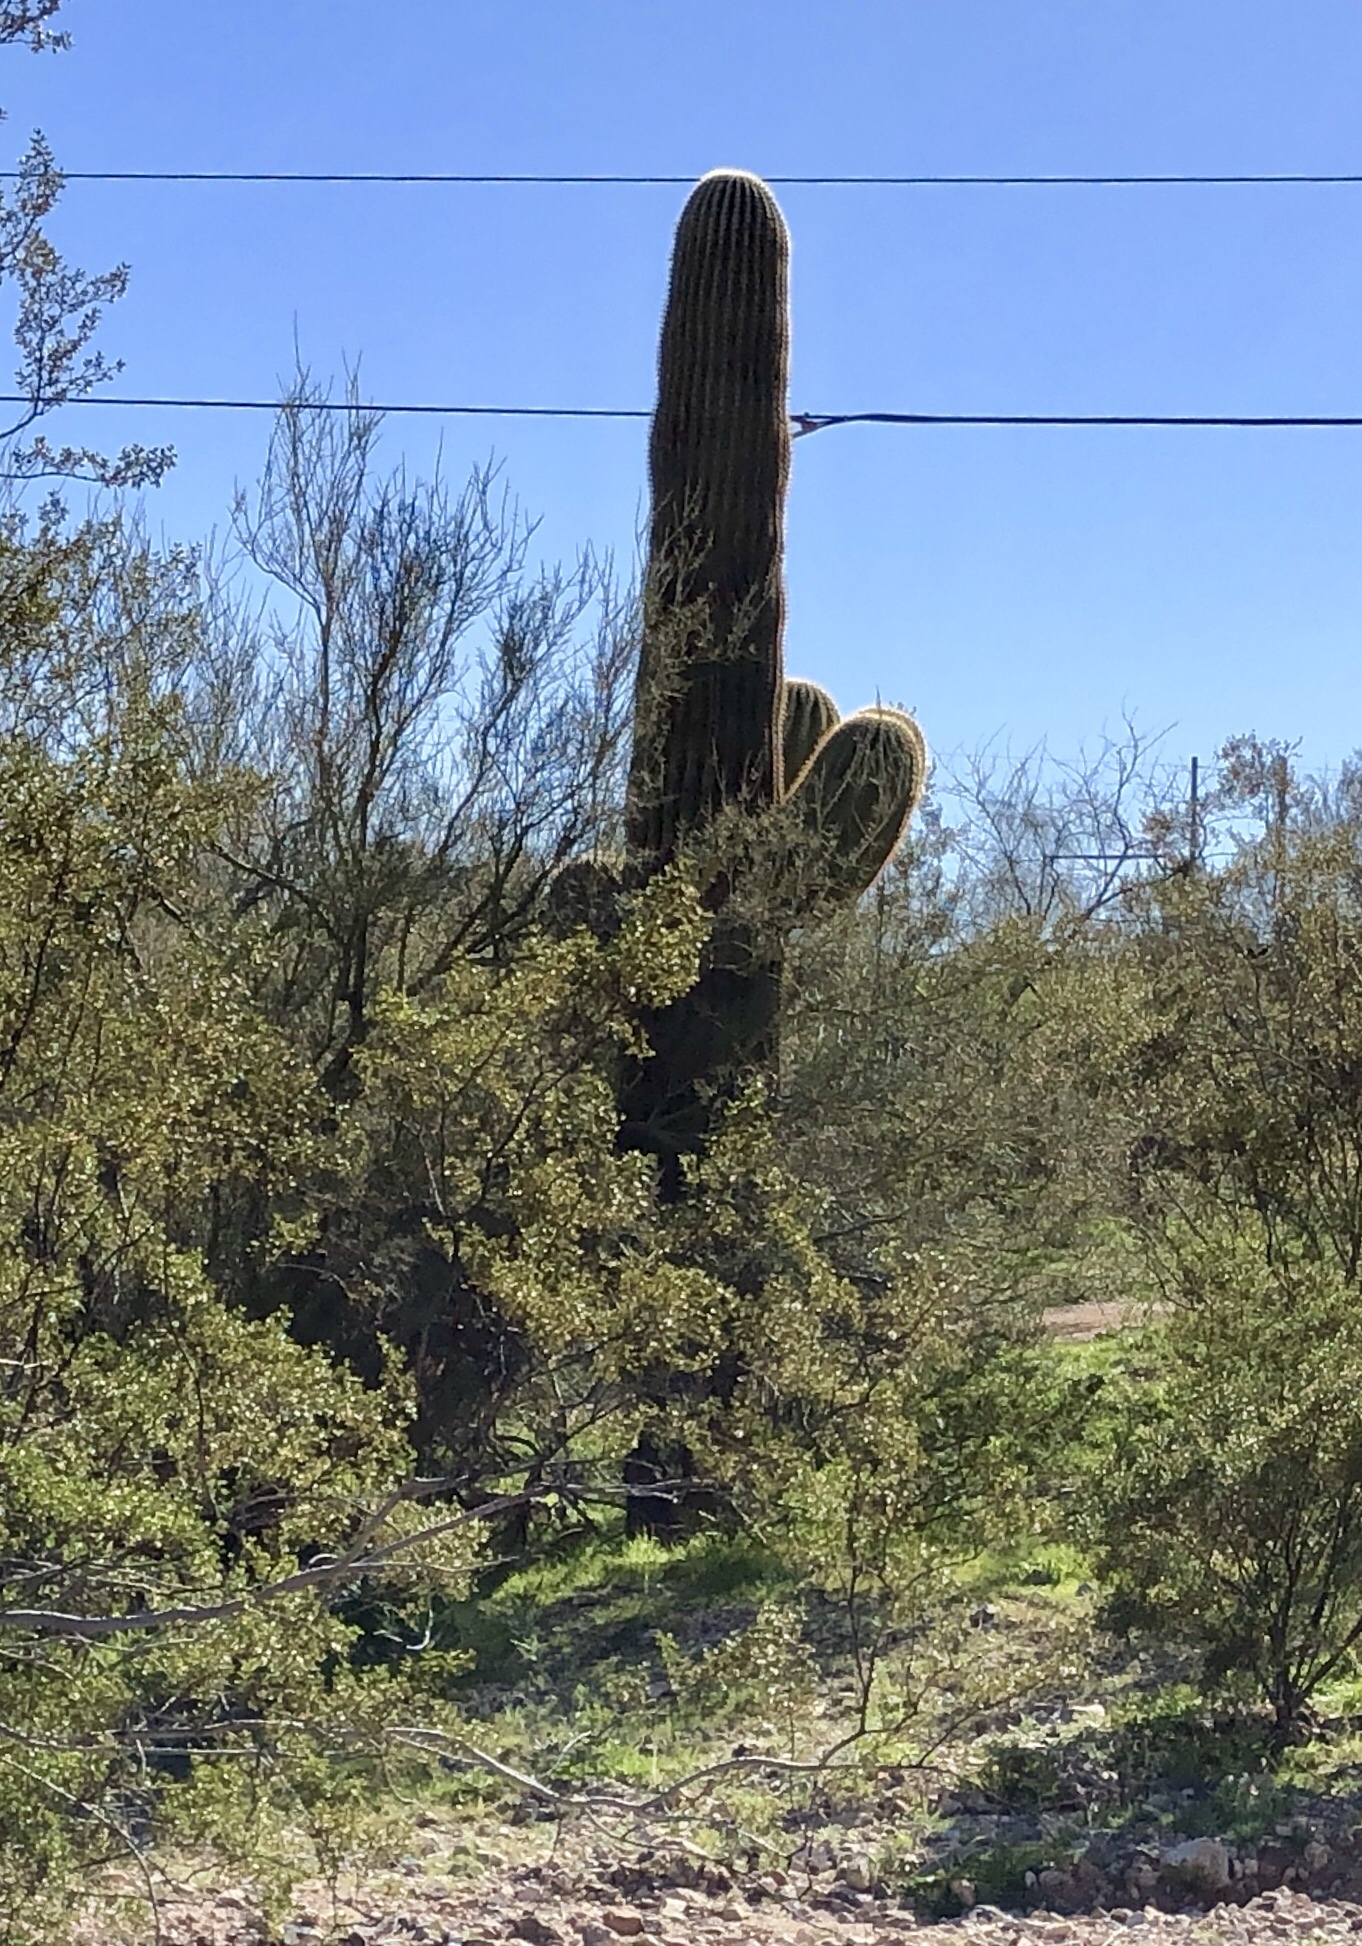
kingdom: Plantae
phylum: Tracheophyta
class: Magnoliopsida
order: Caryophyllales
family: Cactaceae
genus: Carnegiea
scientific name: Carnegiea gigantea
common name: Saguaro
